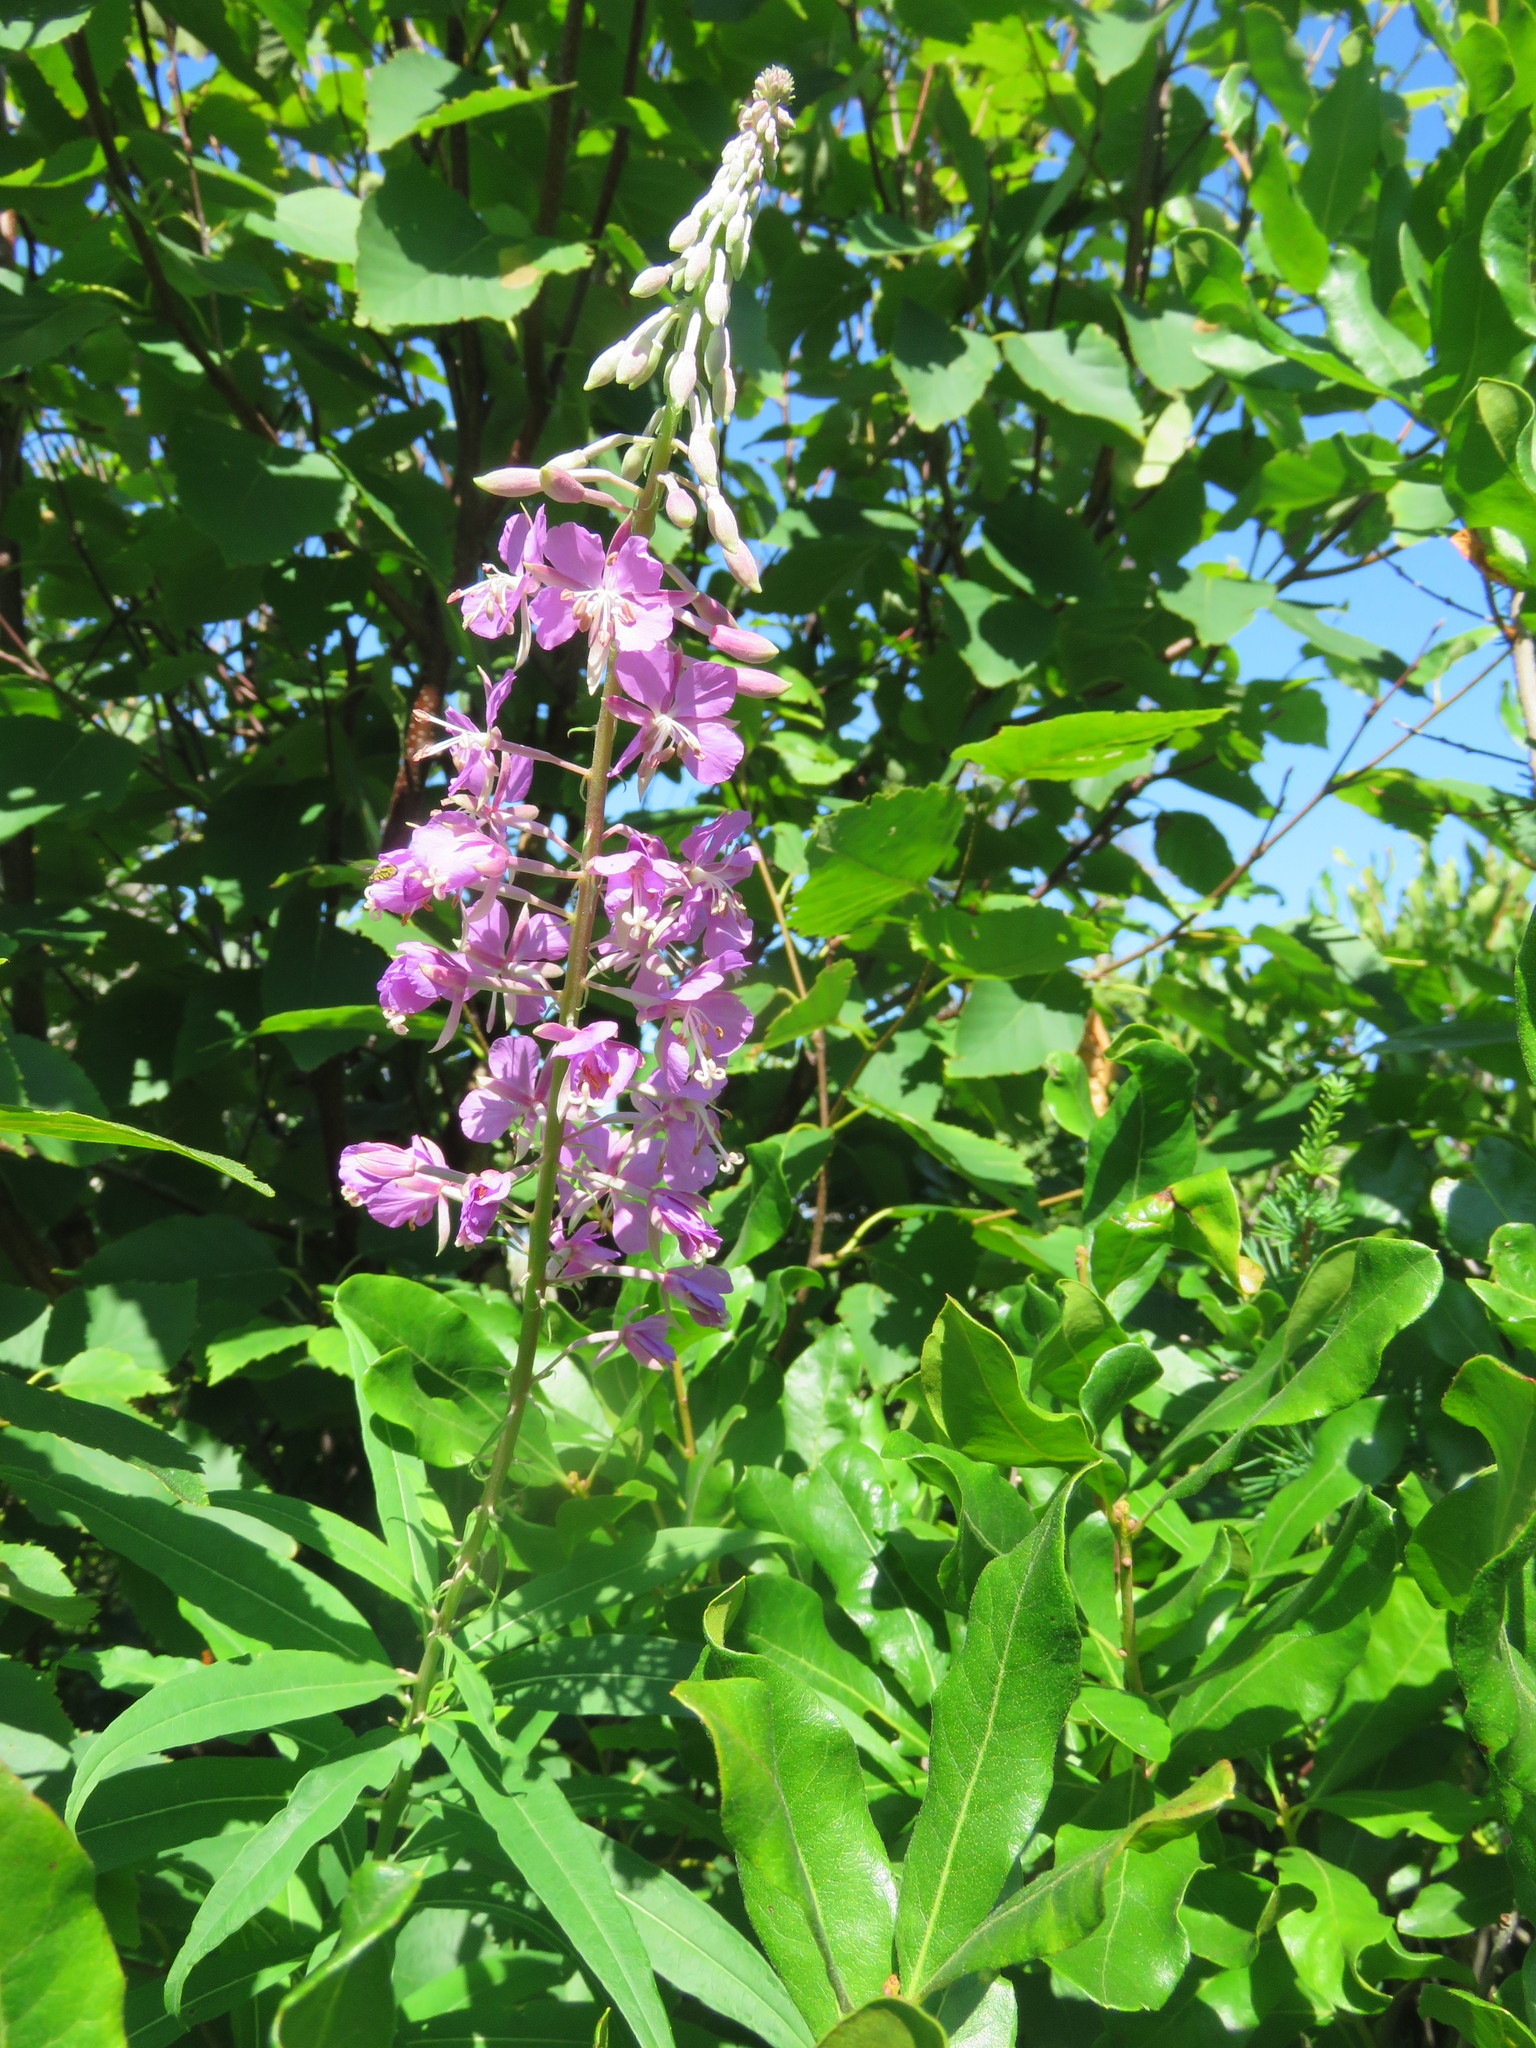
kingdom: Plantae
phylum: Tracheophyta
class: Magnoliopsida
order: Myrtales
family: Onagraceae
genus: Chamaenerion
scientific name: Chamaenerion angustifolium
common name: Fireweed
